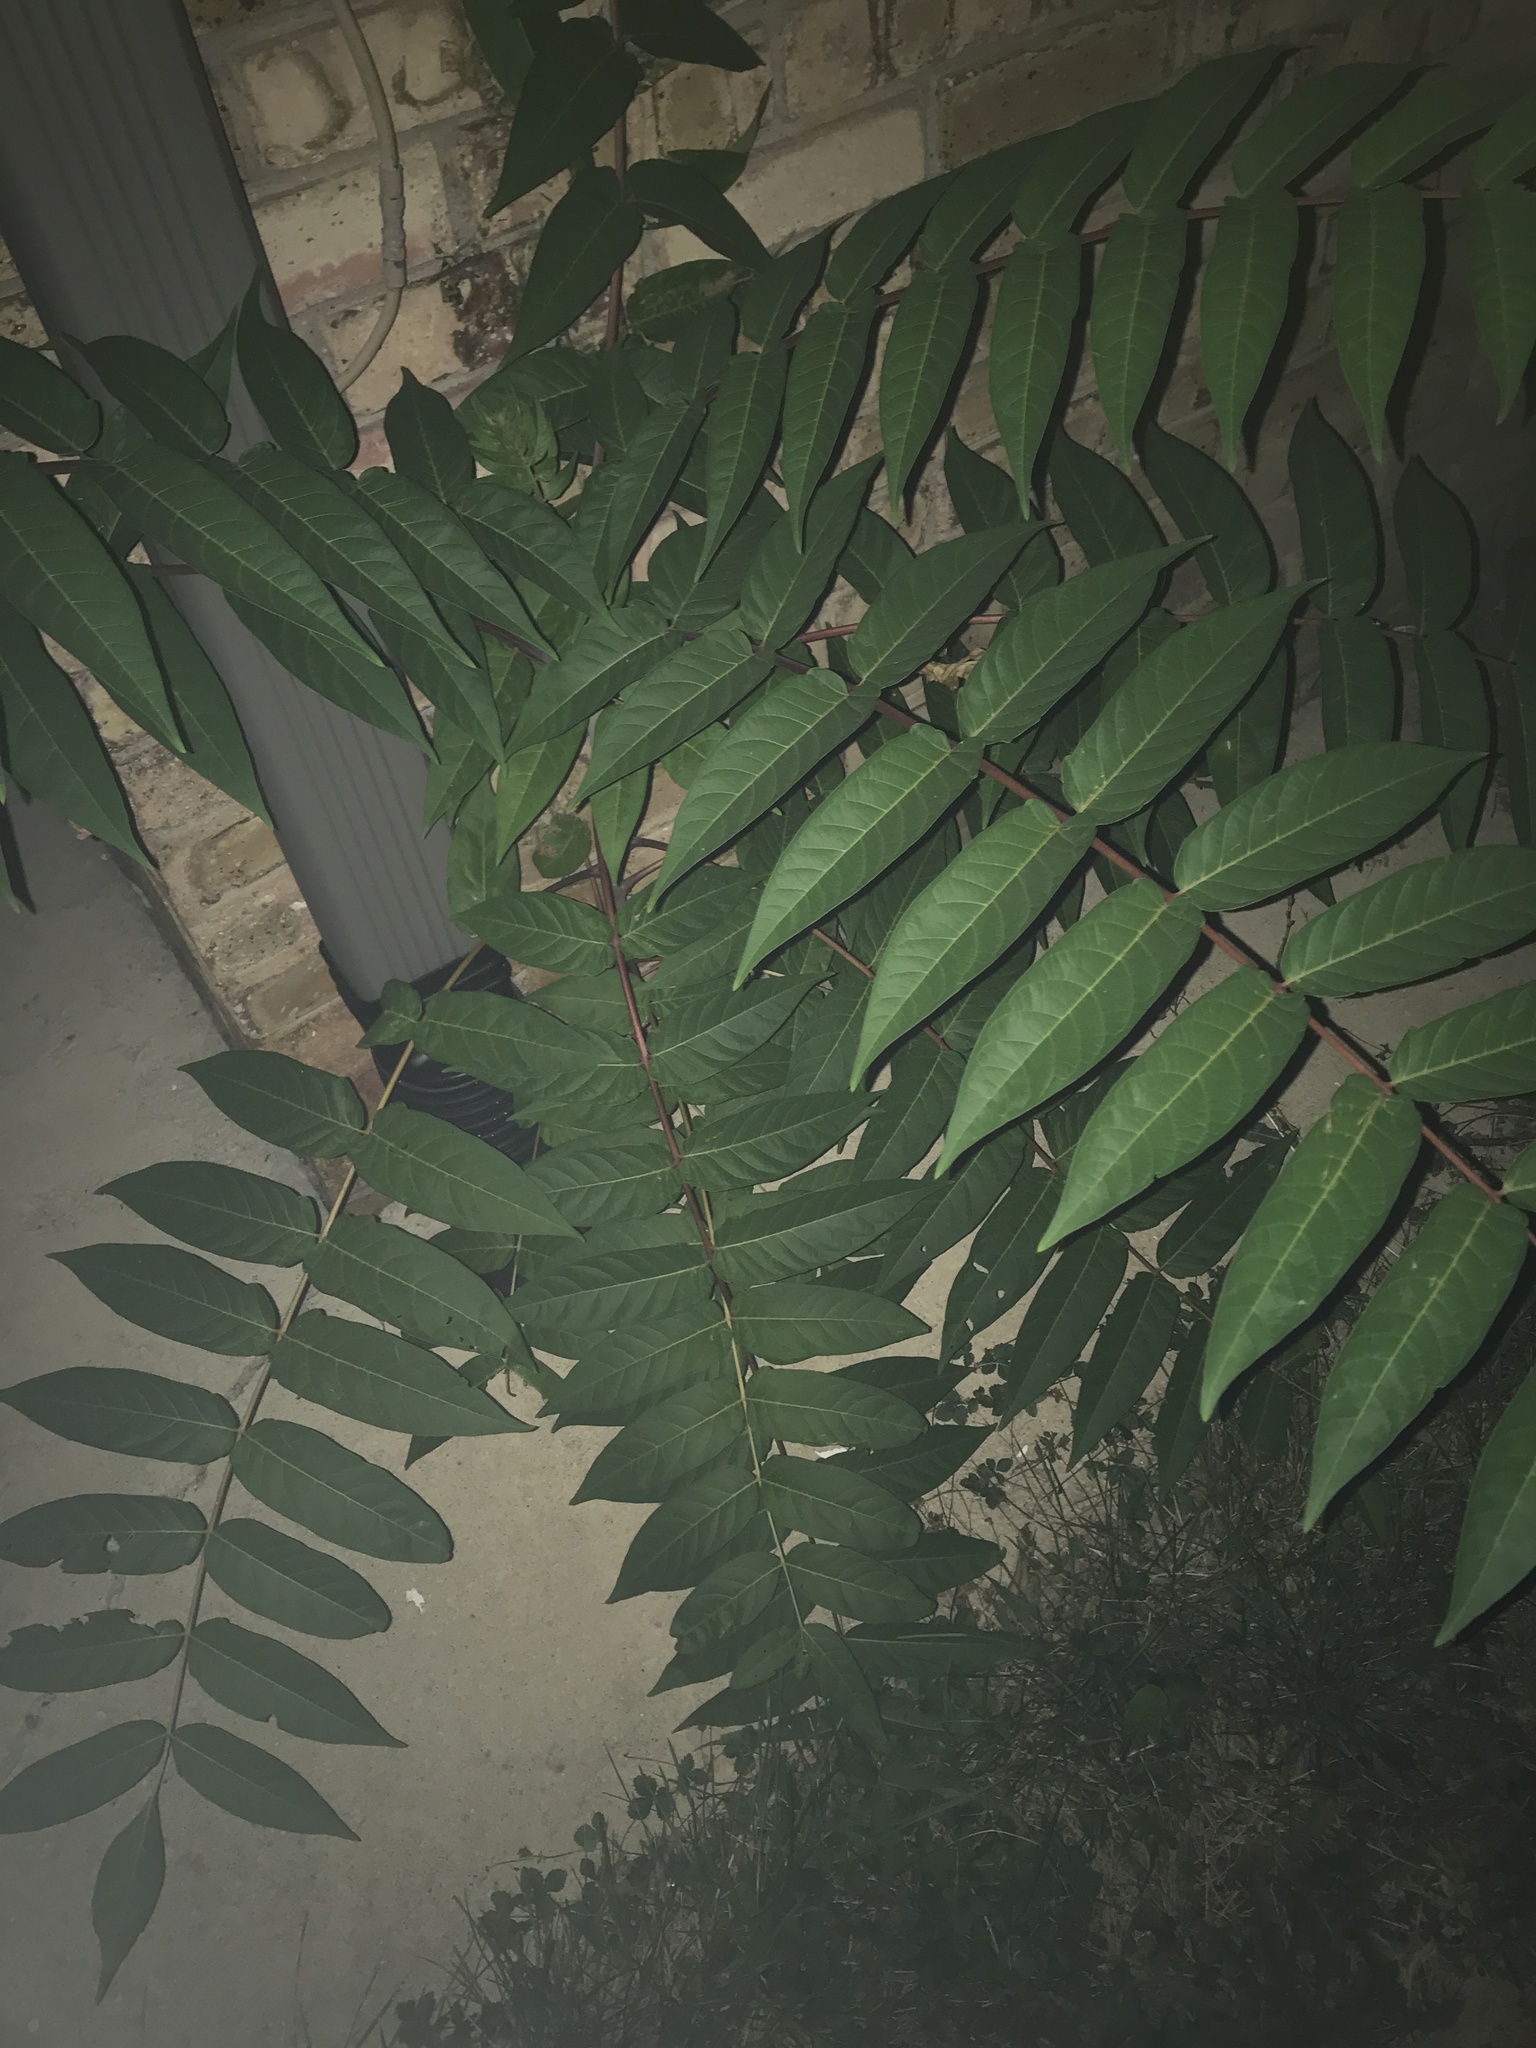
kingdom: Plantae
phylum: Tracheophyta
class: Magnoliopsida
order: Sapindales
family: Simaroubaceae
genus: Ailanthus
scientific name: Ailanthus altissima
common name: Tree-of-heaven
